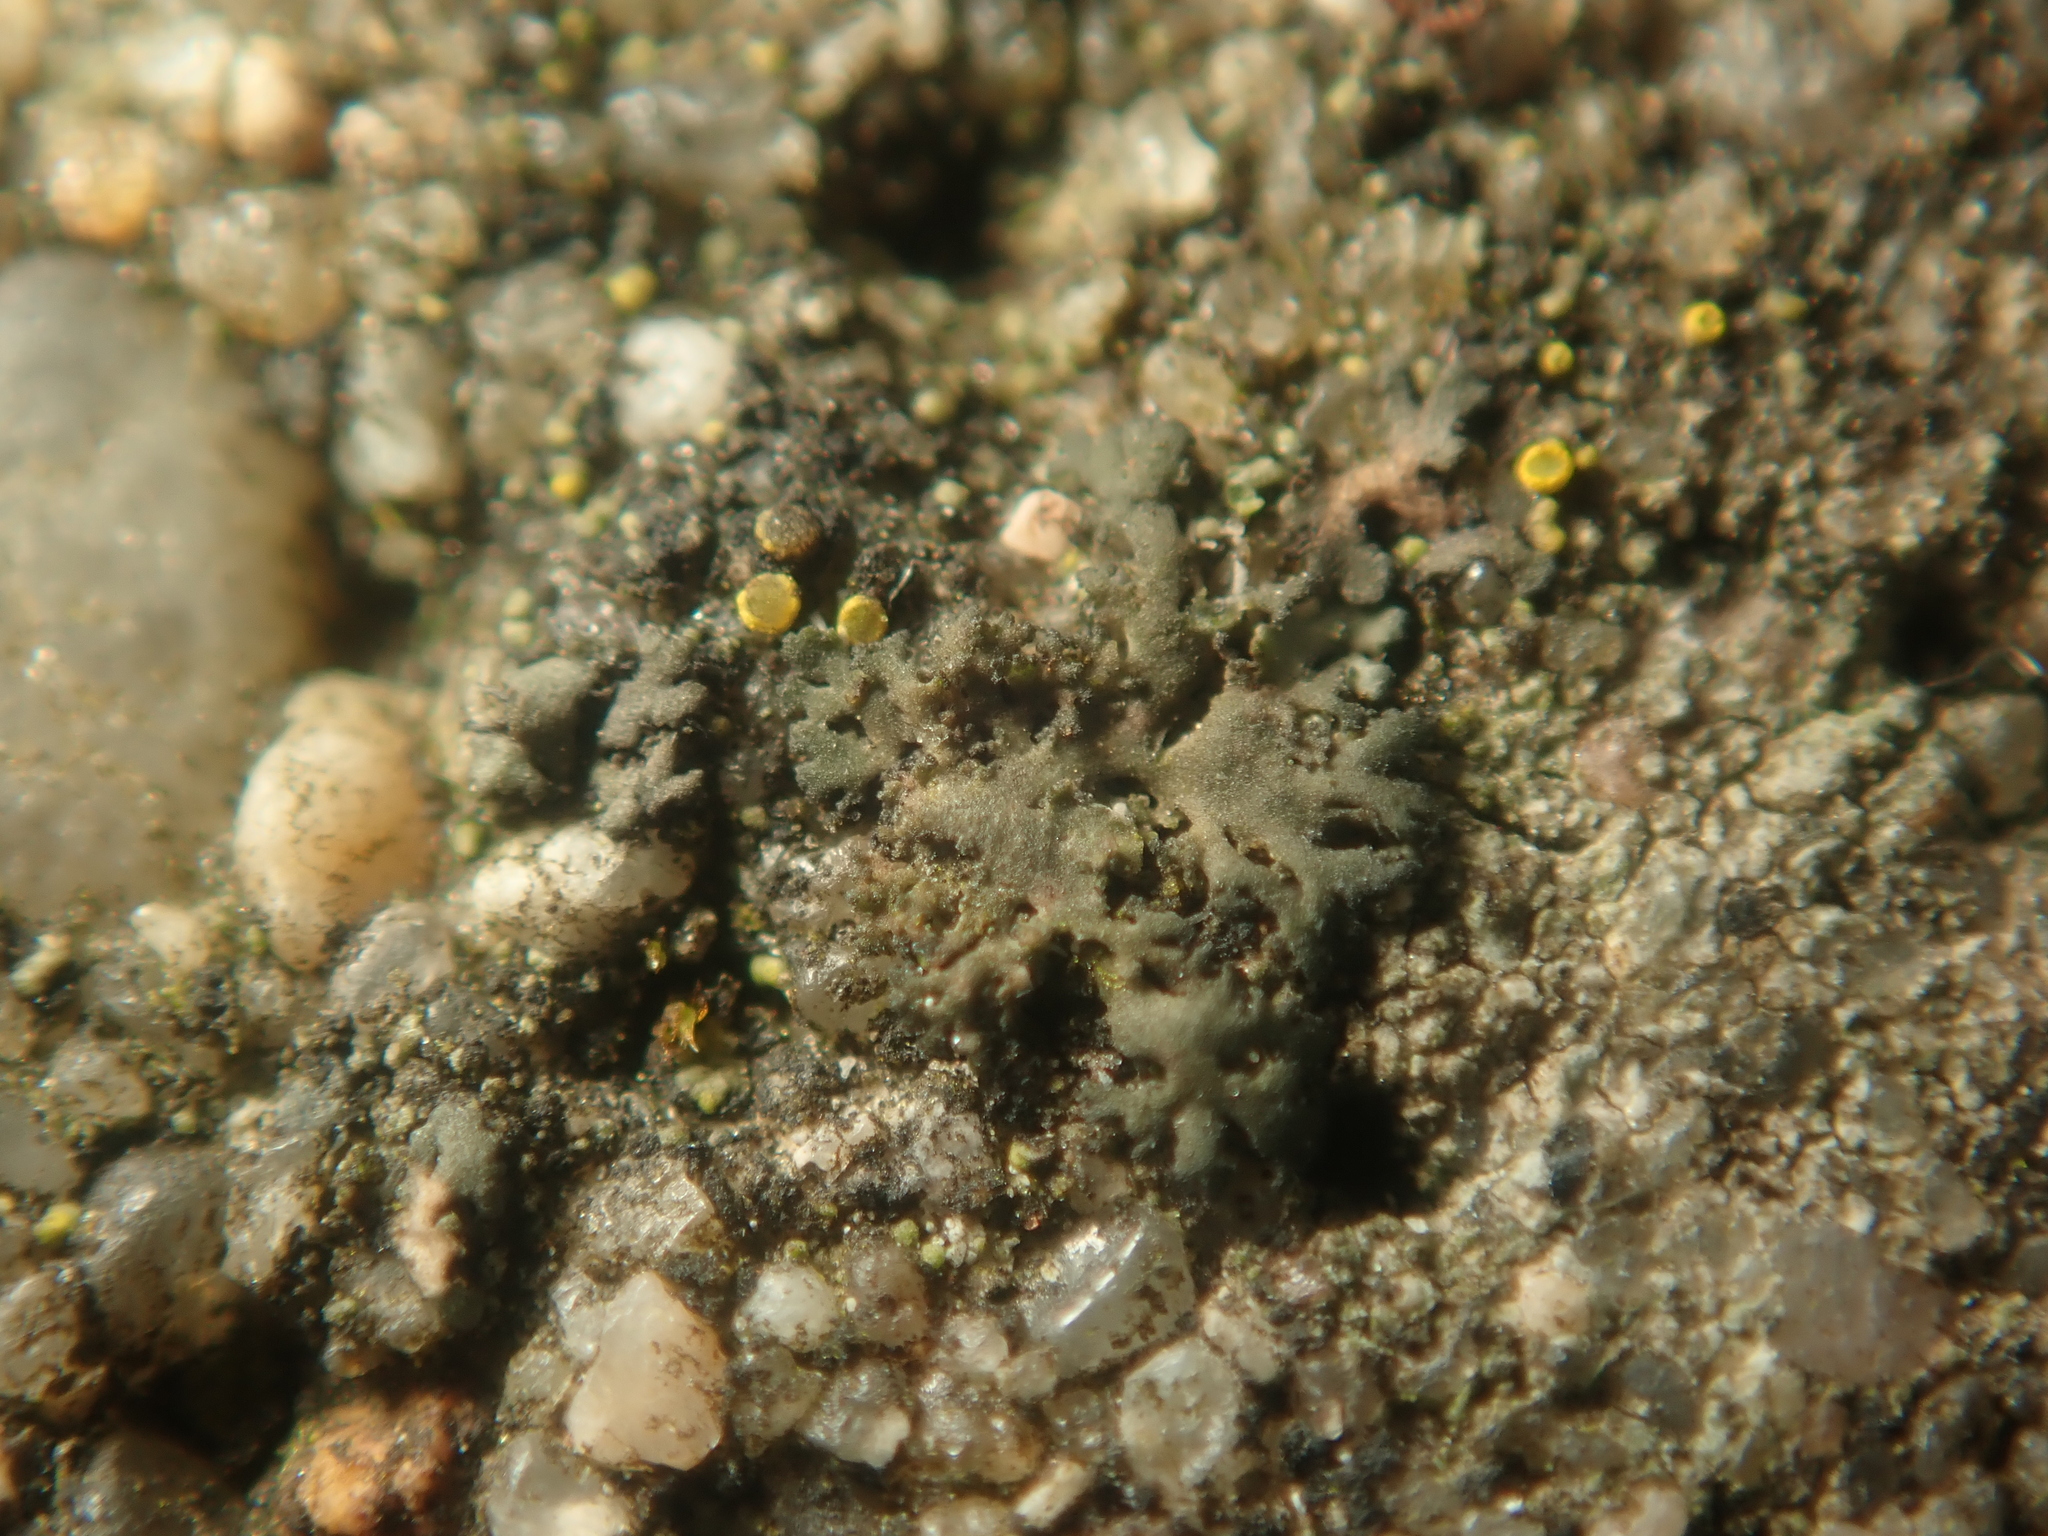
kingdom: Fungi
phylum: Ascomycota
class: Lecanoromycetes
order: Caliciales
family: Physciaceae
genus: Physciella
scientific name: Physciella nigricans
